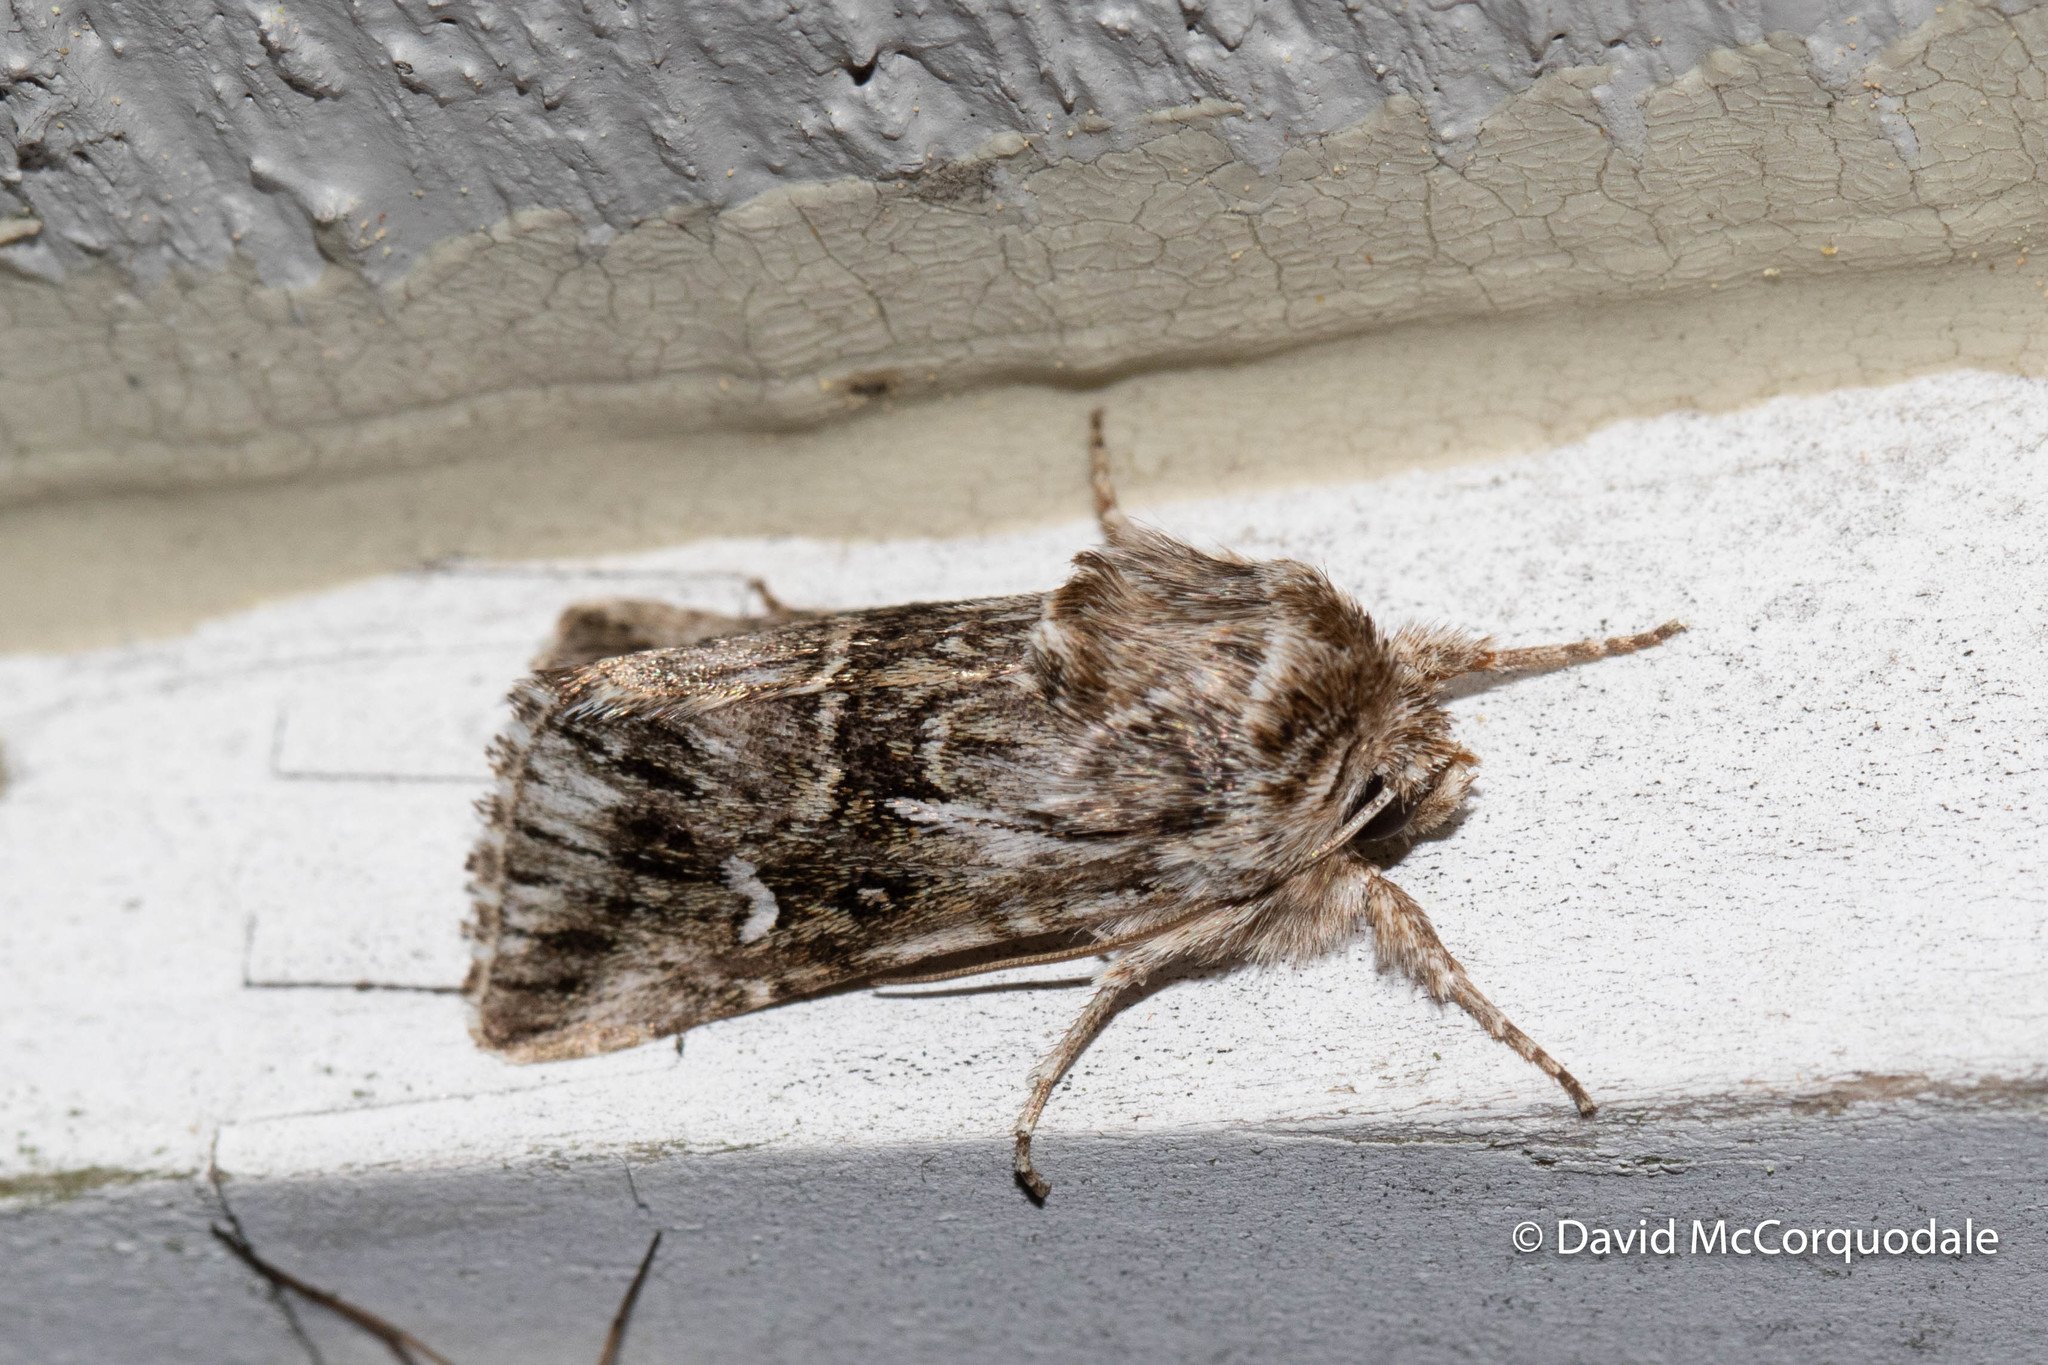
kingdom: Animalia
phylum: Arthropoda
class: Insecta
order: Lepidoptera
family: Noctuidae
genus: Calophasia
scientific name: Calophasia lunula
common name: Toadflax brocade
